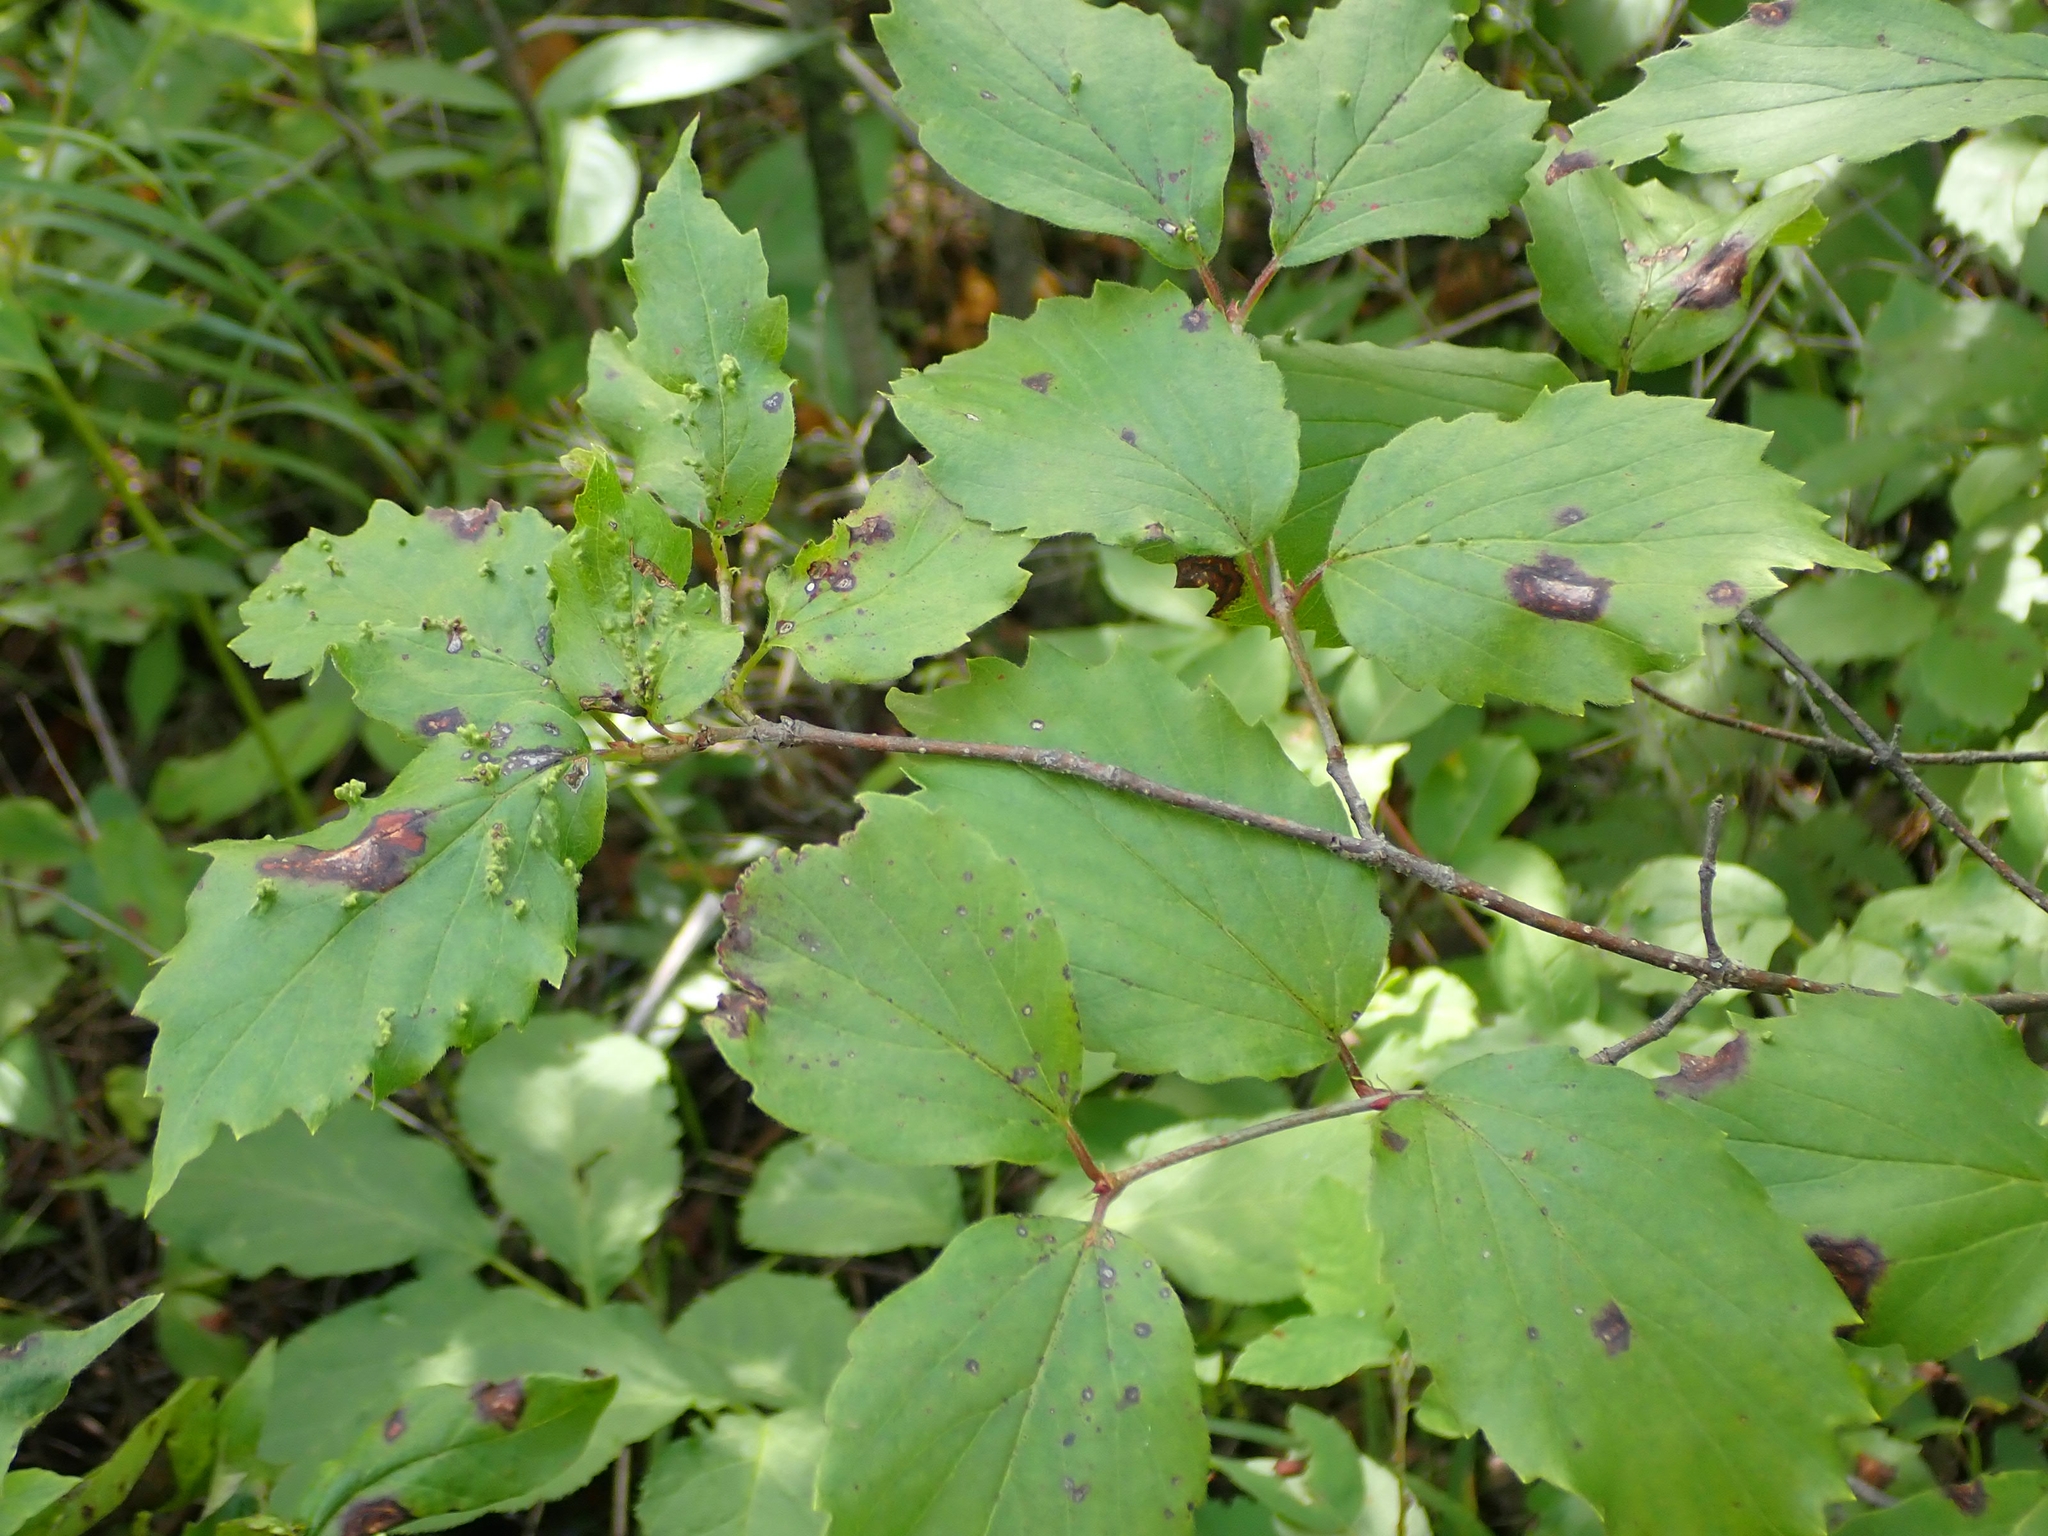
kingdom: Plantae
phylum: Tracheophyta
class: Magnoliopsida
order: Dipsacales
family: Viburnaceae
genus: Viburnum
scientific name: Viburnum rafinesqueanum
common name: Downy arrow-wood
